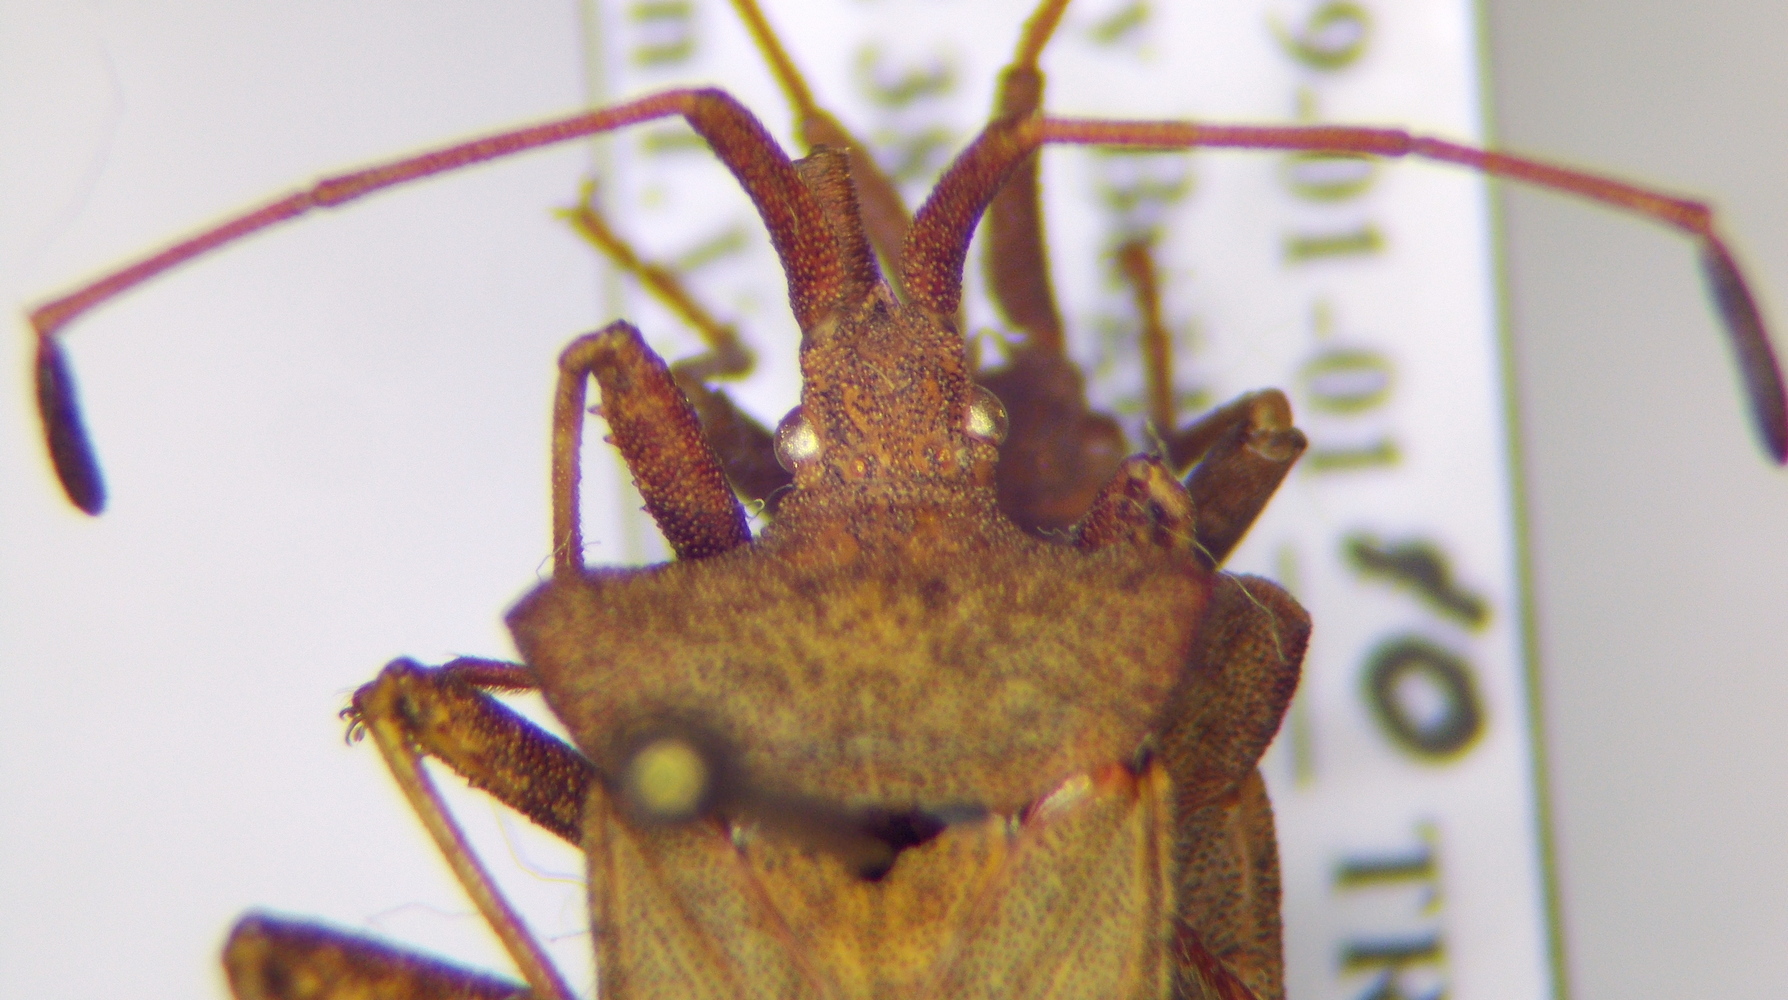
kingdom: Animalia
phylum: Arthropoda
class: Insecta
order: Hemiptera
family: Coreidae
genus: Coreus
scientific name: Coreus marginatus
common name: Dock bug
